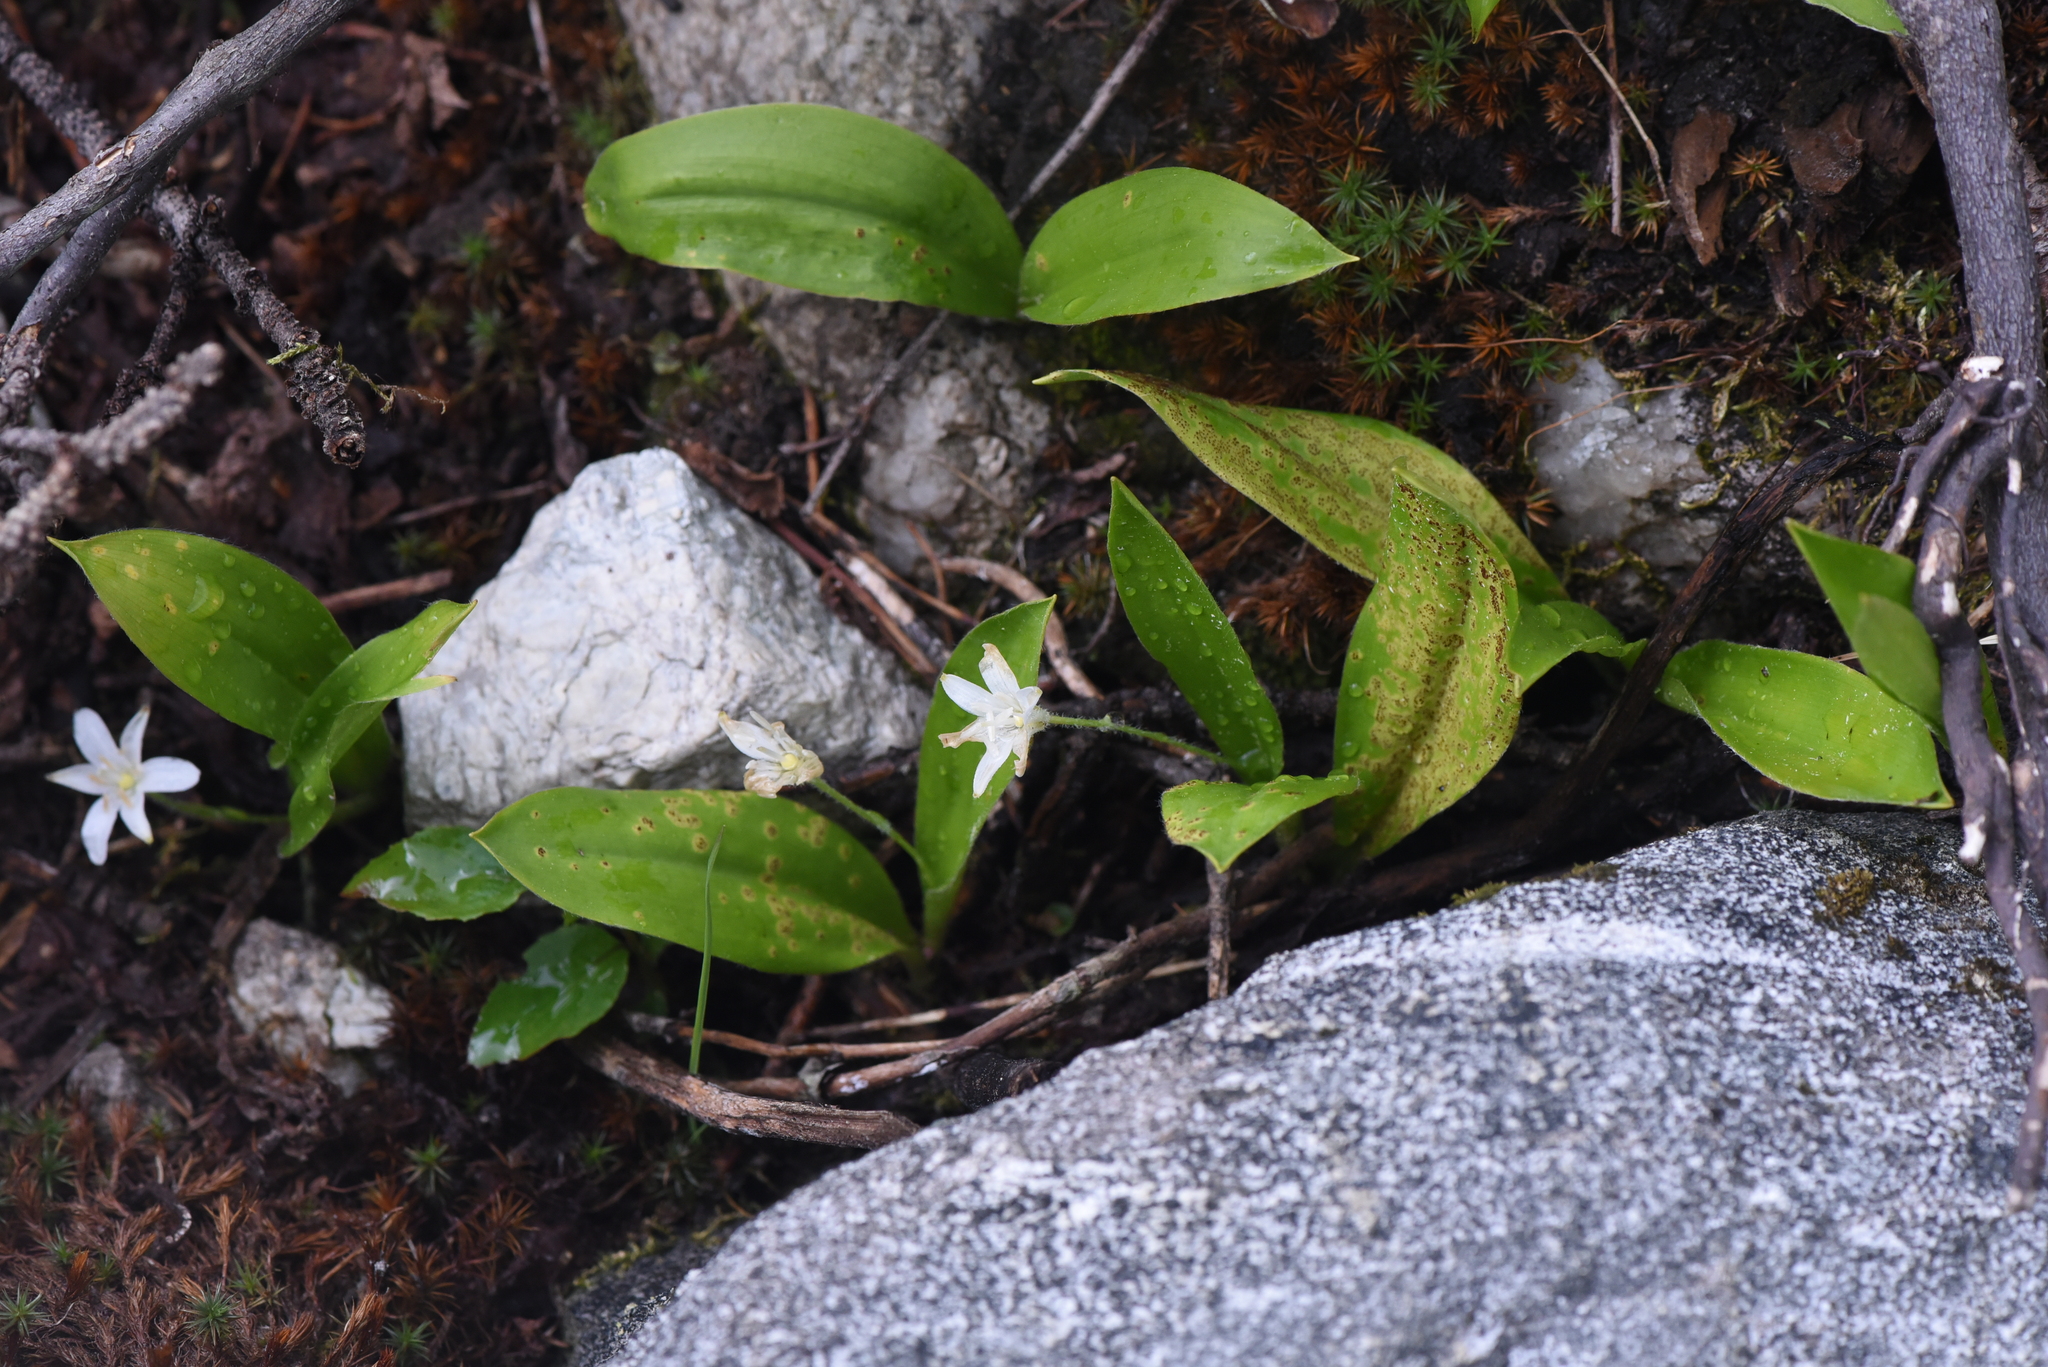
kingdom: Plantae
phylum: Tracheophyta
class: Liliopsida
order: Liliales
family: Liliaceae
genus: Clintonia
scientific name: Clintonia uniflora
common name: Queen's cup
